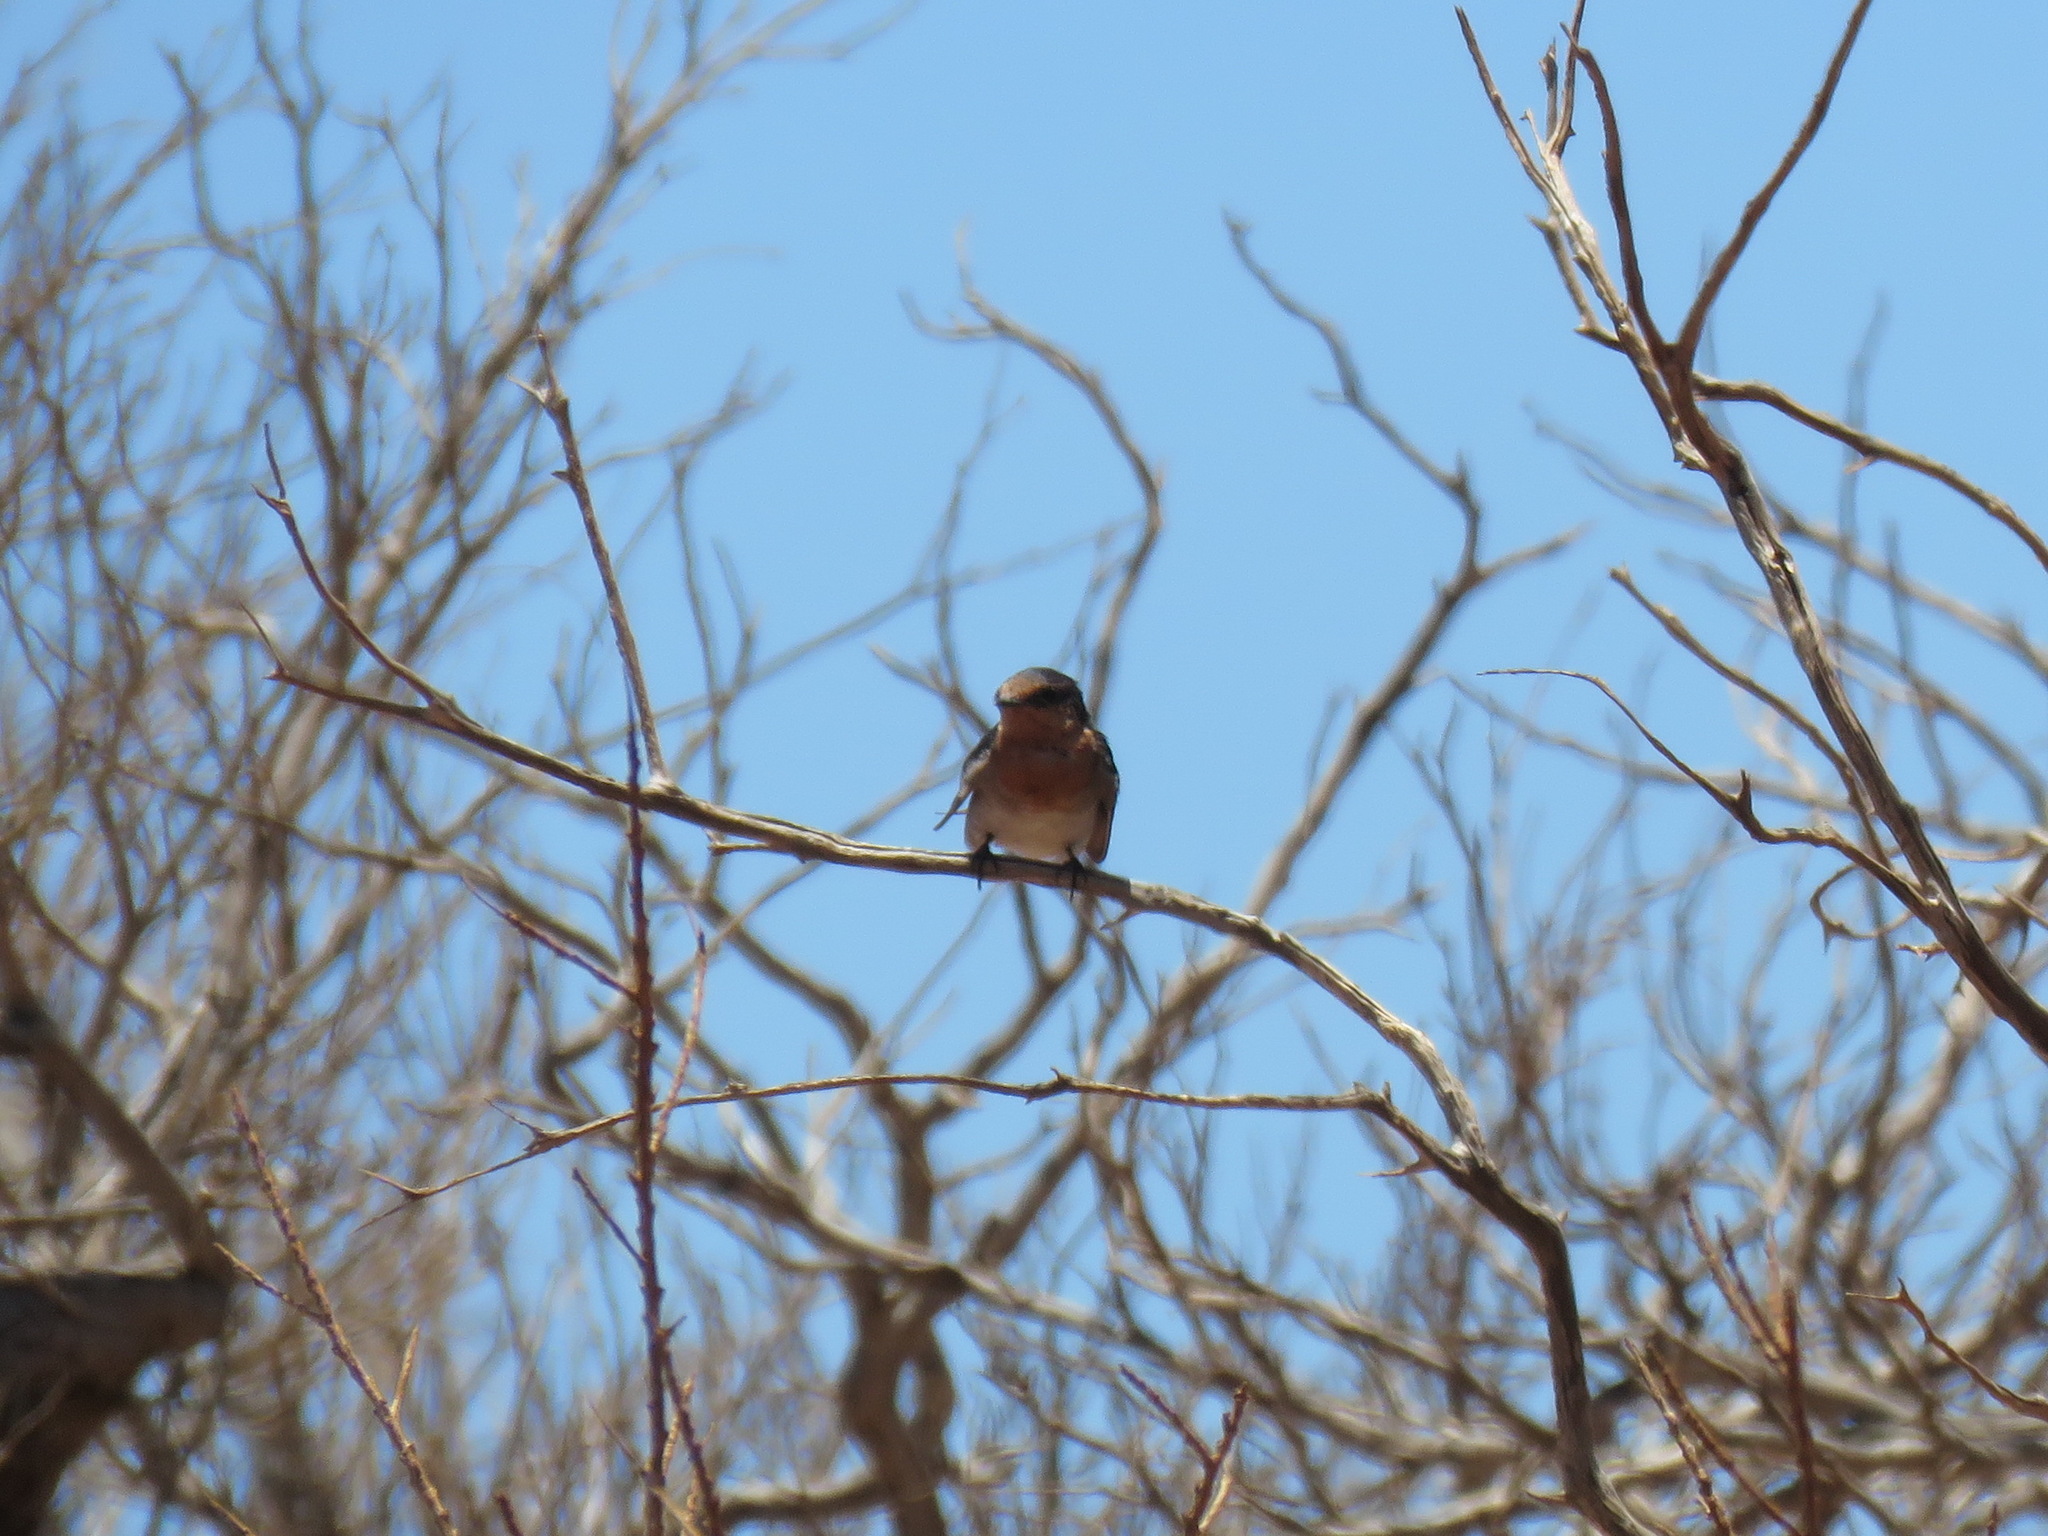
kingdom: Animalia
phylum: Chordata
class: Aves
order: Passeriformes
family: Hirundinidae
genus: Hirundo
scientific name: Hirundo neoxena
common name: Welcome swallow
